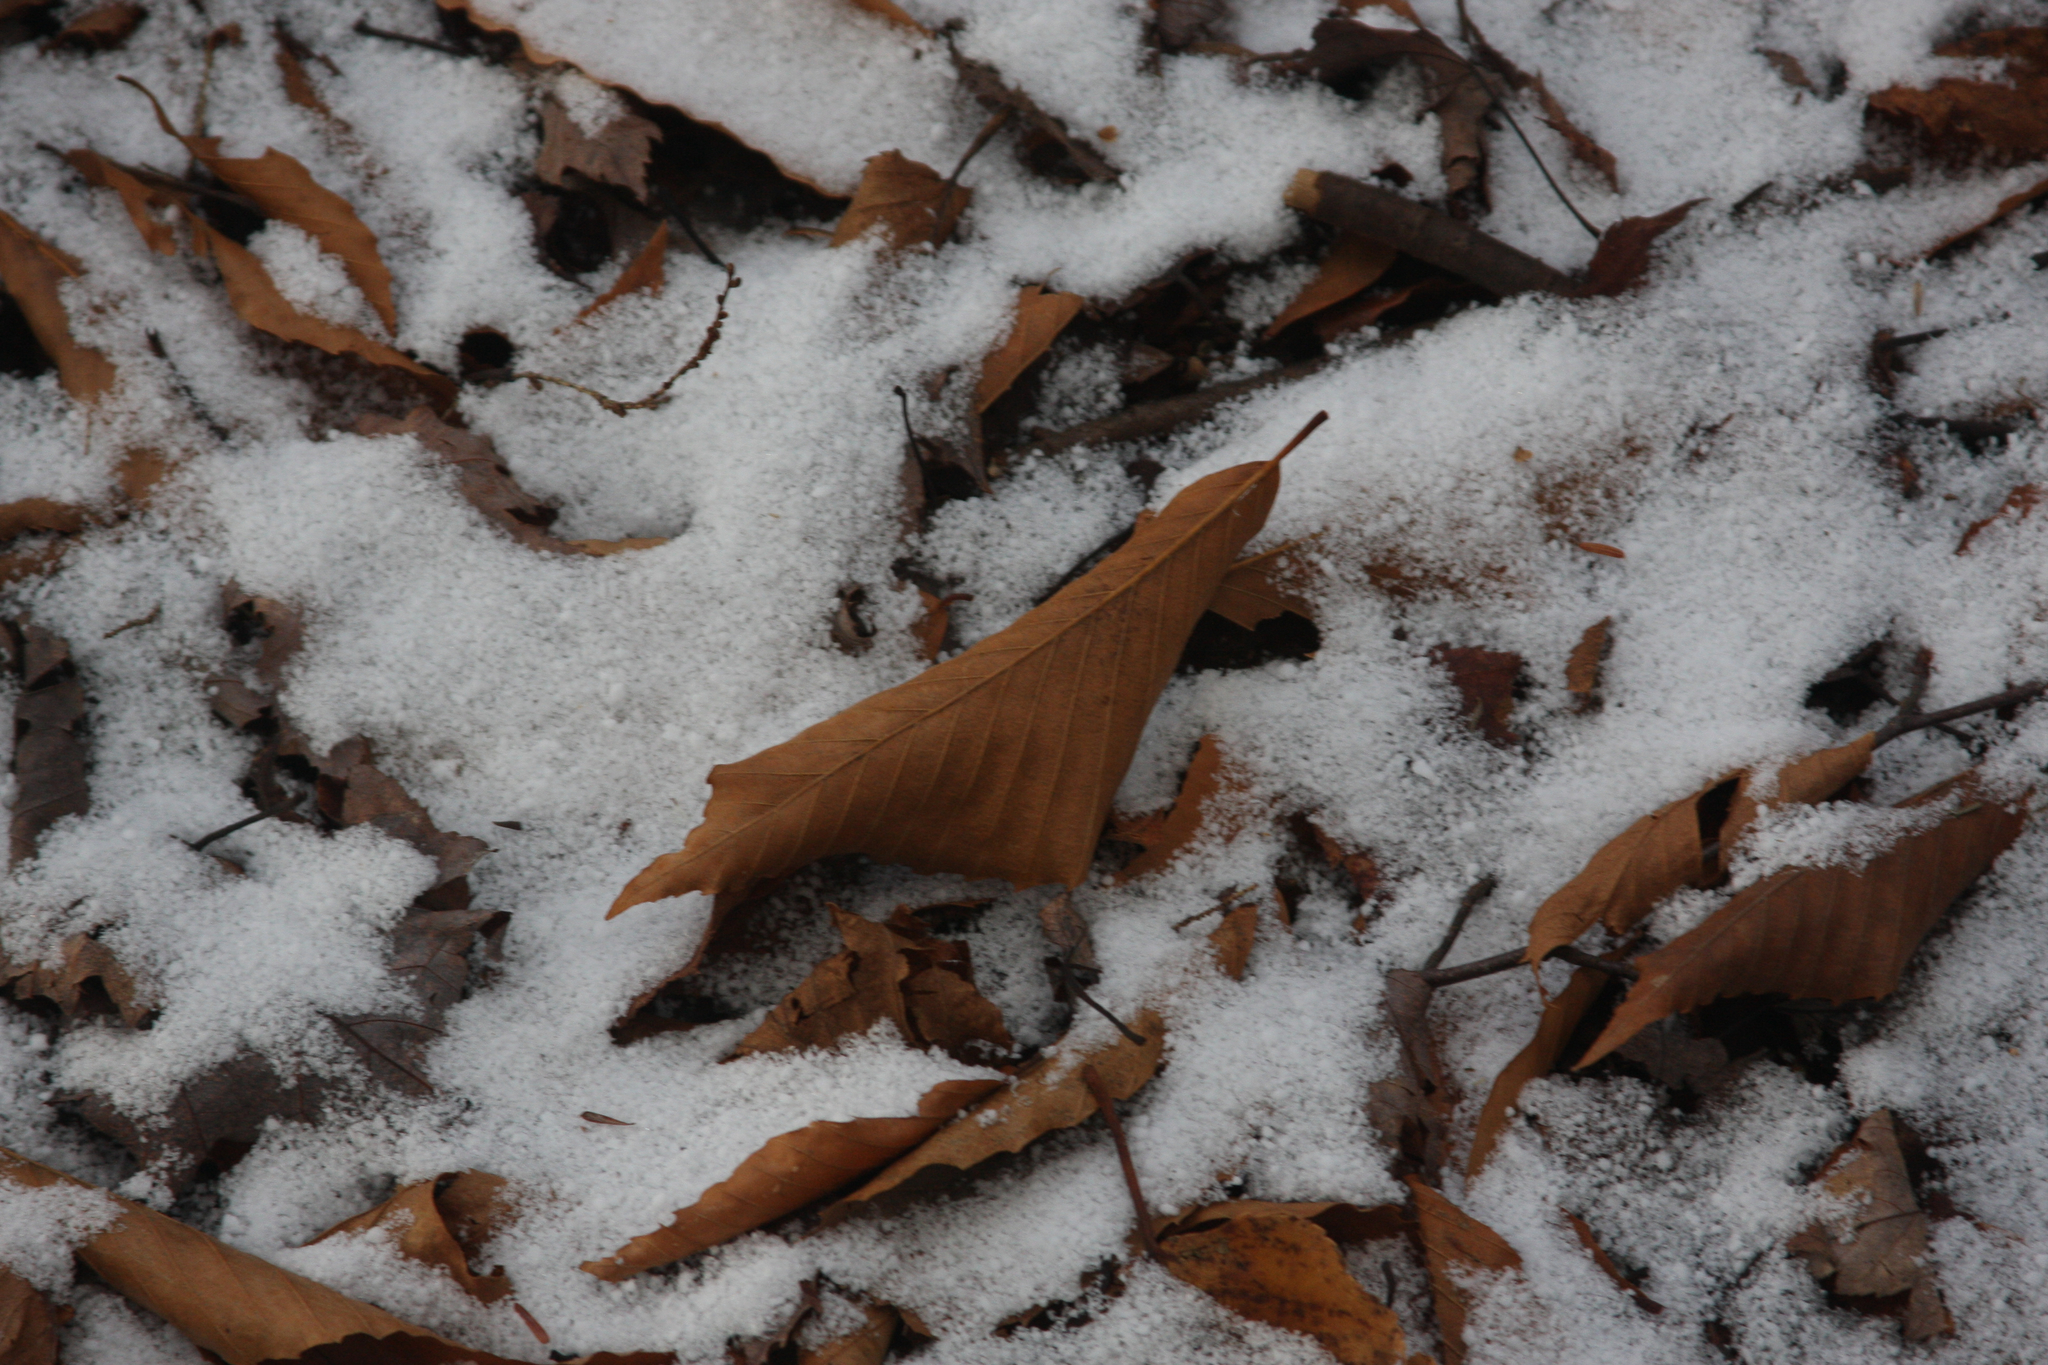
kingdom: Plantae
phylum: Tracheophyta
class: Magnoliopsida
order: Fagales
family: Fagaceae
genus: Fagus
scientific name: Fagus grandifolia
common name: American beech
